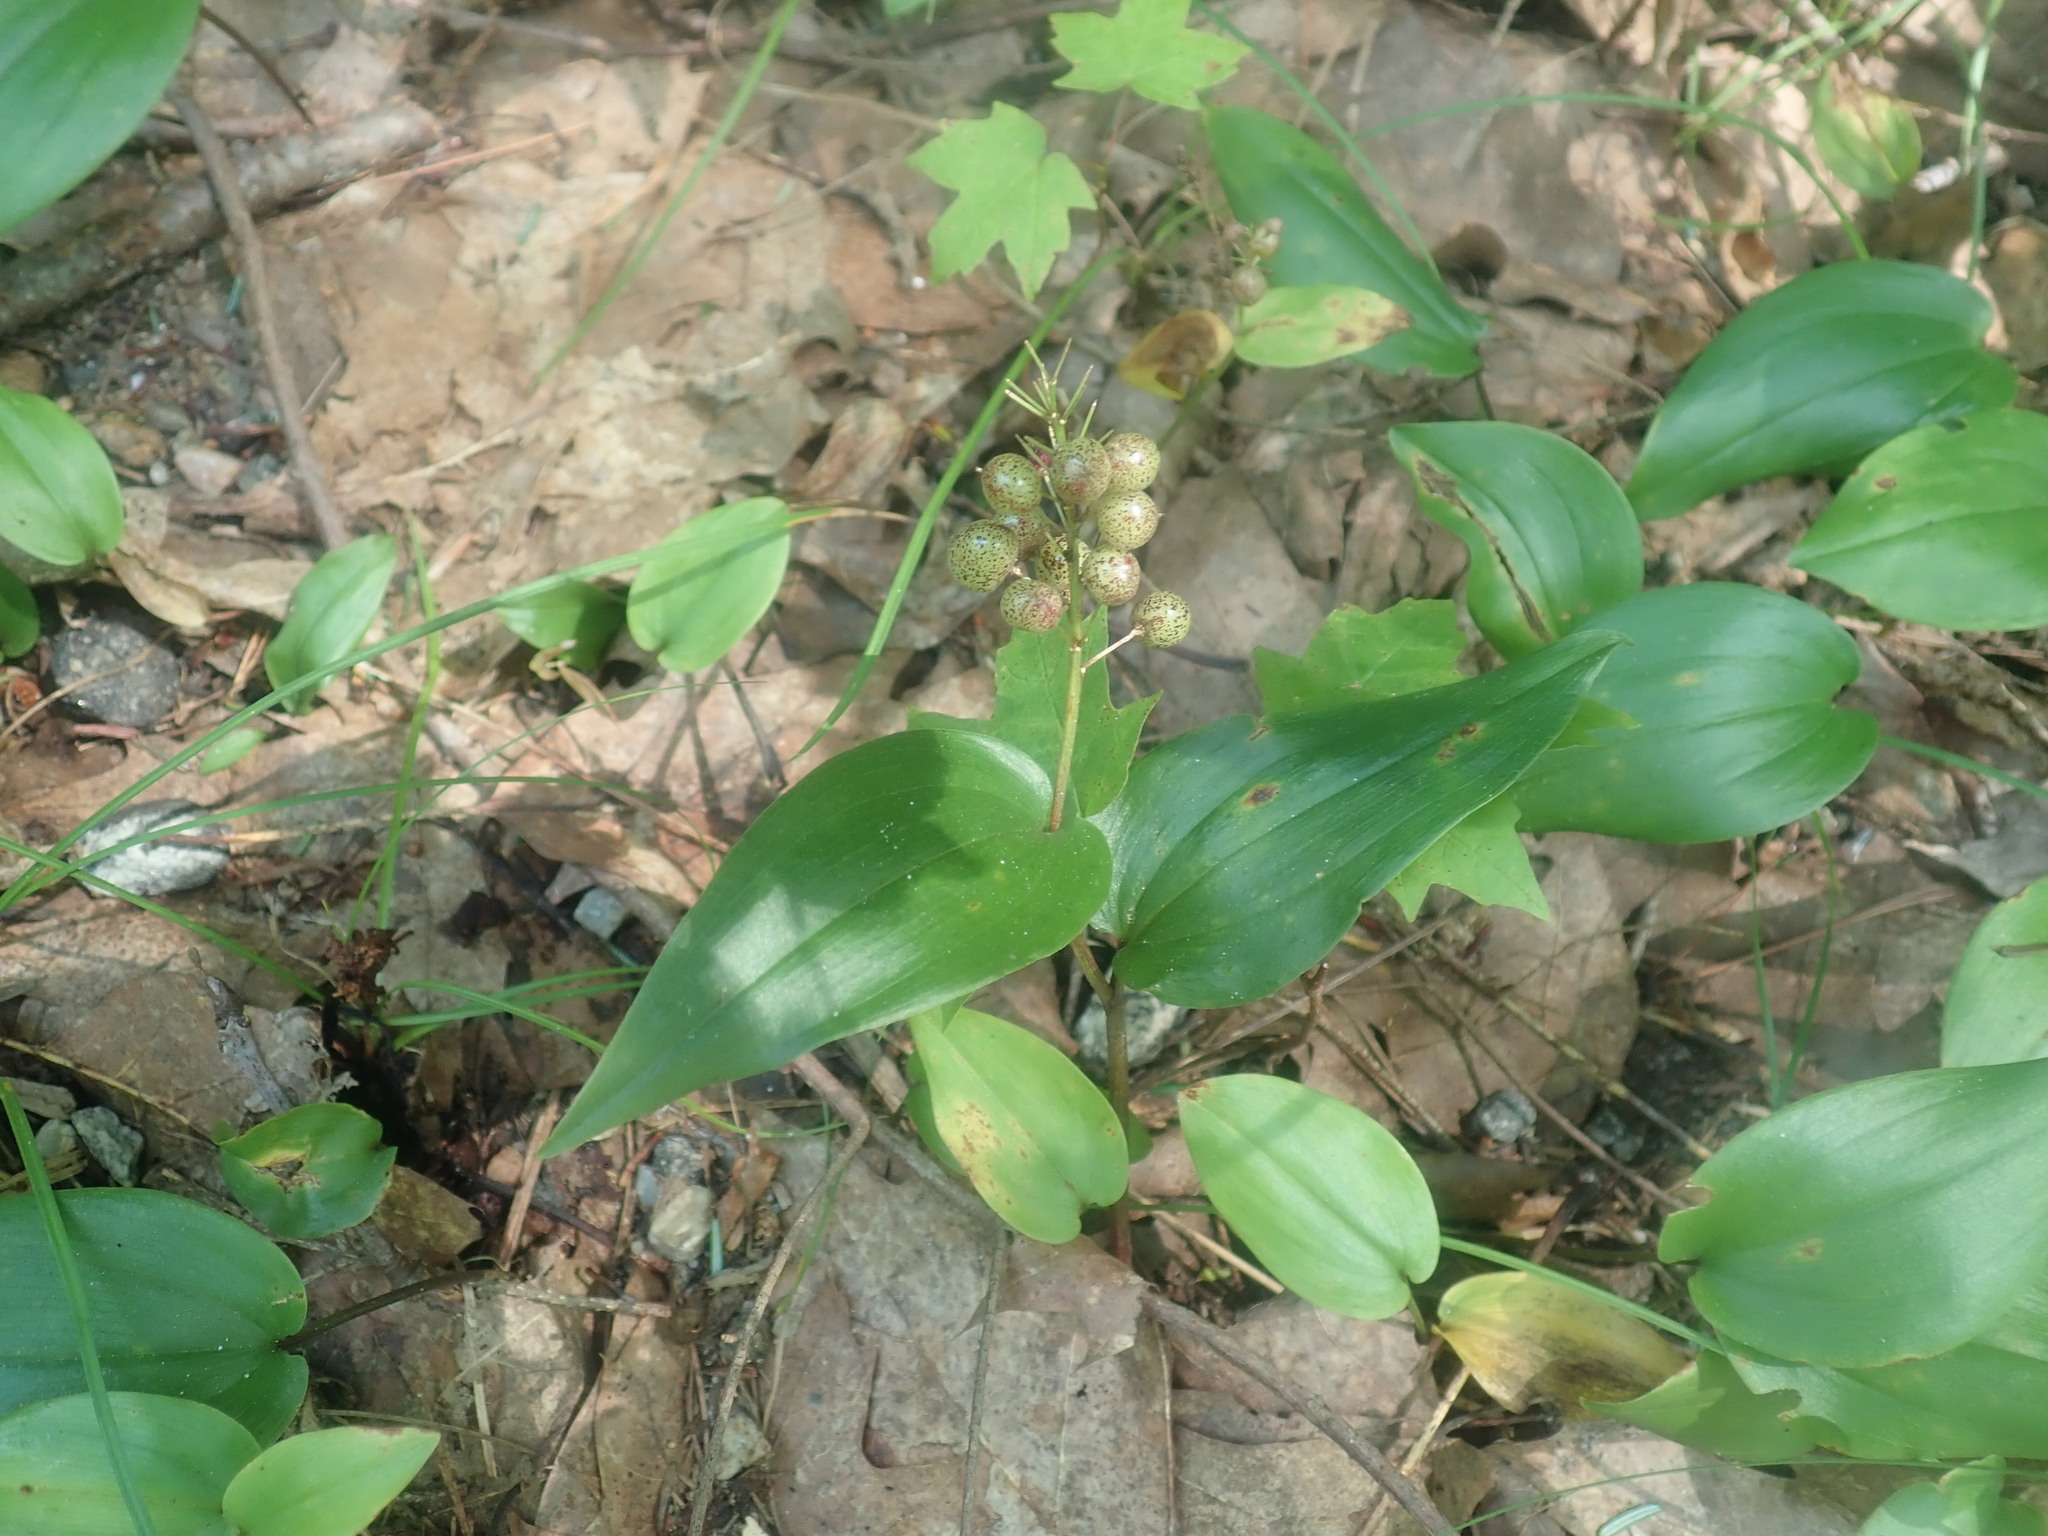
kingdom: Plantae
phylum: Tracheophyta
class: Liliopsida
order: Asparagales
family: Asparagaceae
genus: Maianthemum
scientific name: Maianthemum canadense
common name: False lily-of-the-valley
